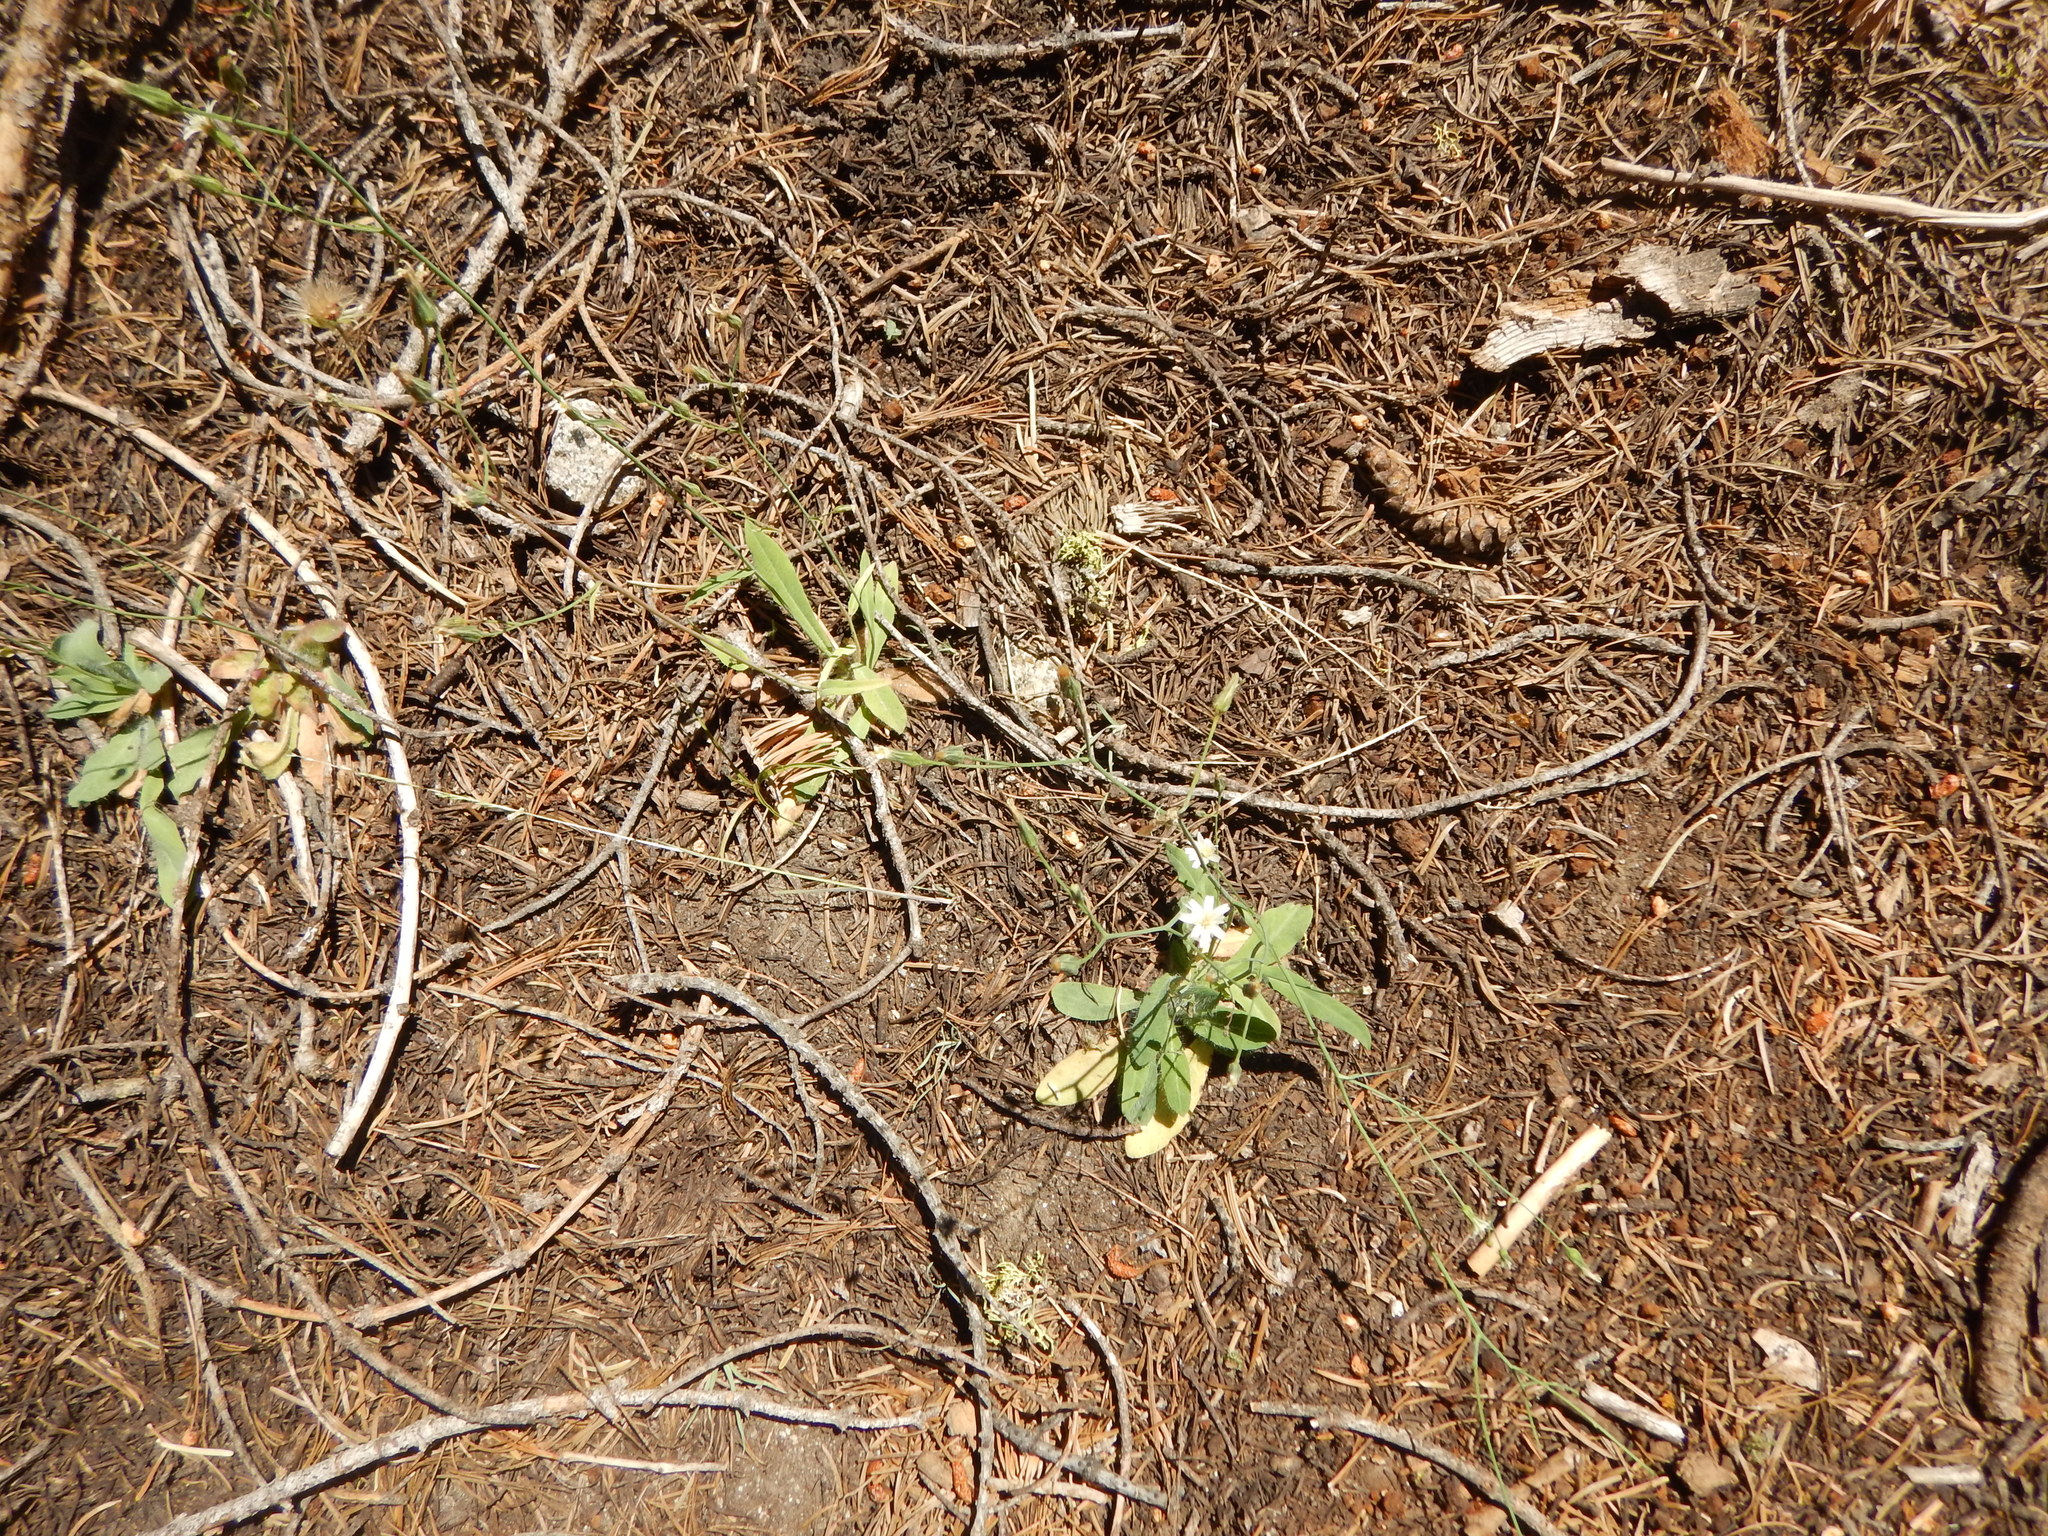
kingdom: Plantae
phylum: Tracheophyta
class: Magnoliopsida
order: Asterales
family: Asteraceae
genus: Hieracium
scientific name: Hieracium albiflorum
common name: White hawkweed
